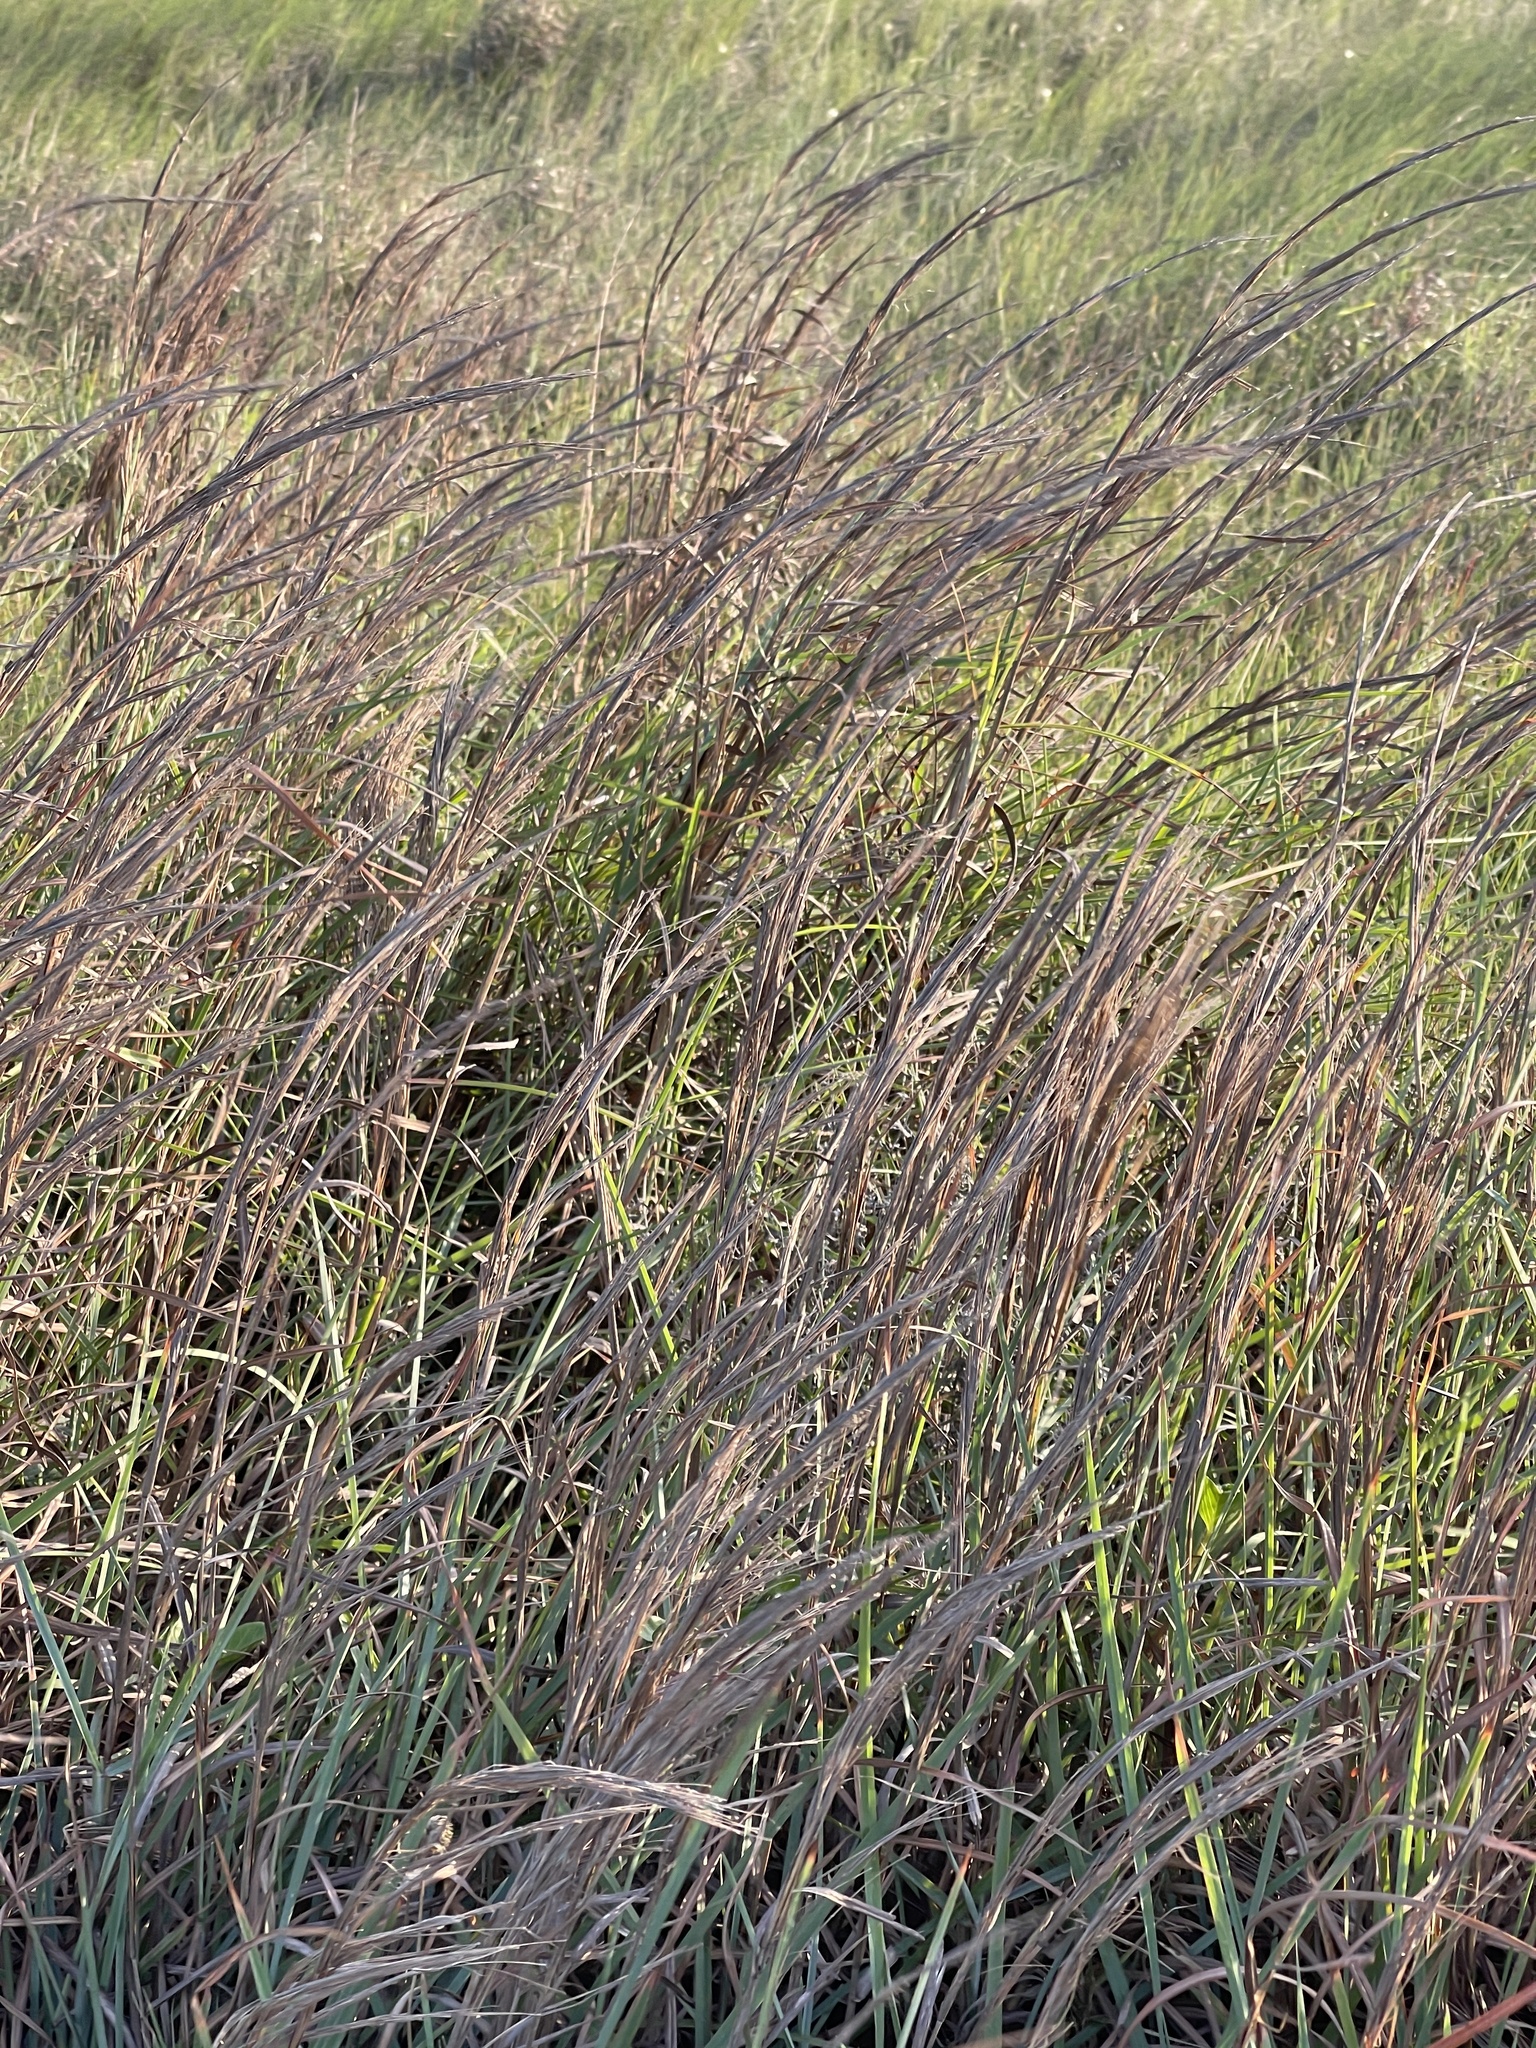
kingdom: Plantae
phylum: Tracheophyta
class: Liliopsida
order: Poales
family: Poaceae
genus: Schizachyrium
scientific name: Schizachyrium scoparium
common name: Little bluestem
